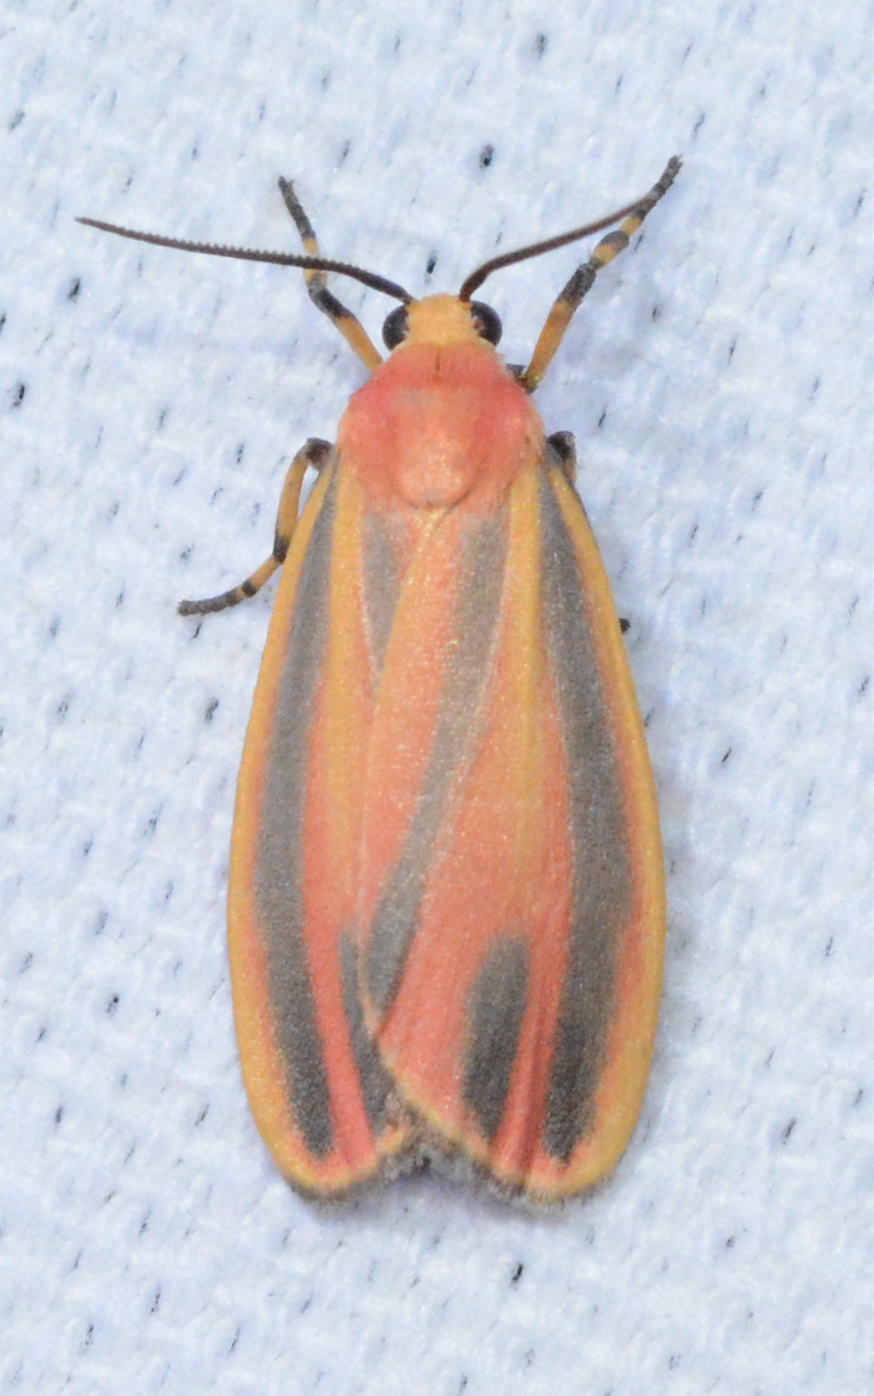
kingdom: Animalia
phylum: Arthropoda
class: Insecta
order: Lepidoptera
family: Erebidae
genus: Hypoprepia
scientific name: Hypoprepia fucosa
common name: Painted lichen moth
